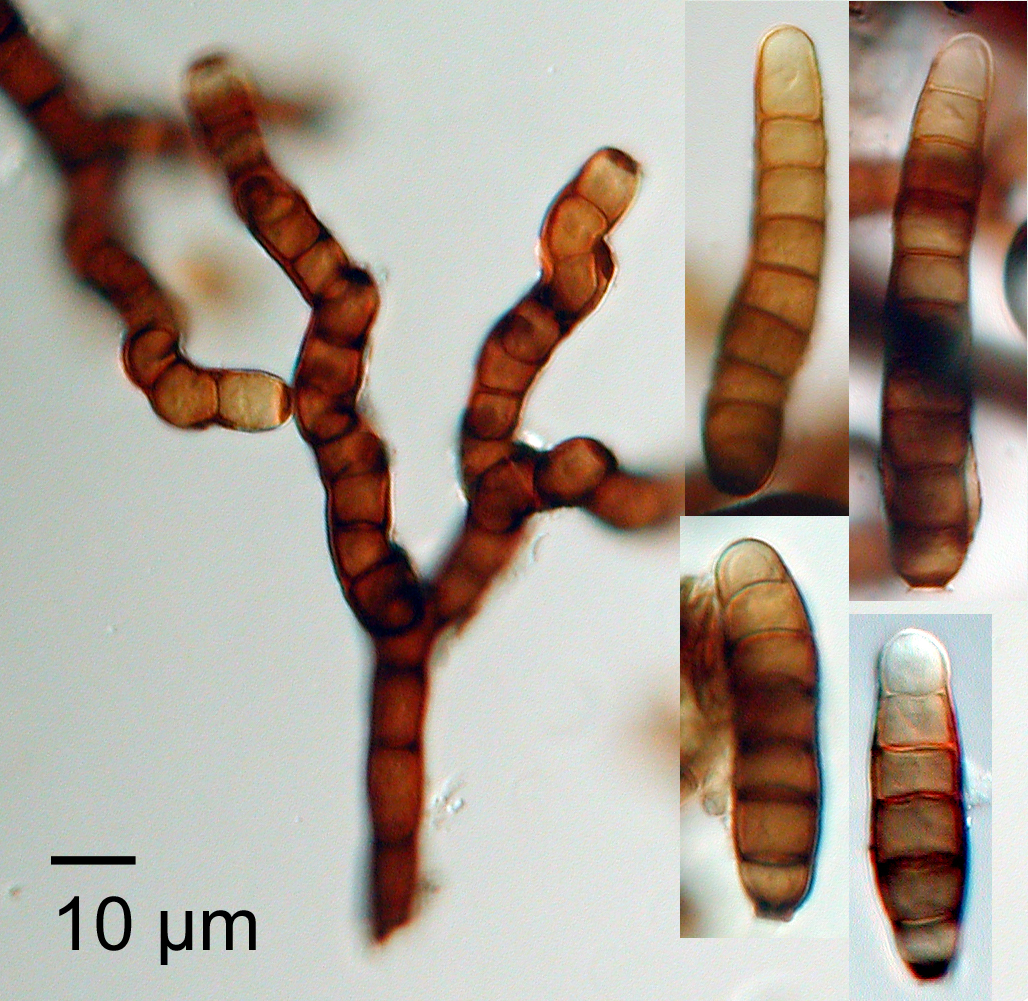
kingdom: Fungi
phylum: Ascomycota
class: Dothideomycetes
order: Pleosporales
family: Torulaceae
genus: Dendryphion
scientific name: Dendryphion nanum
